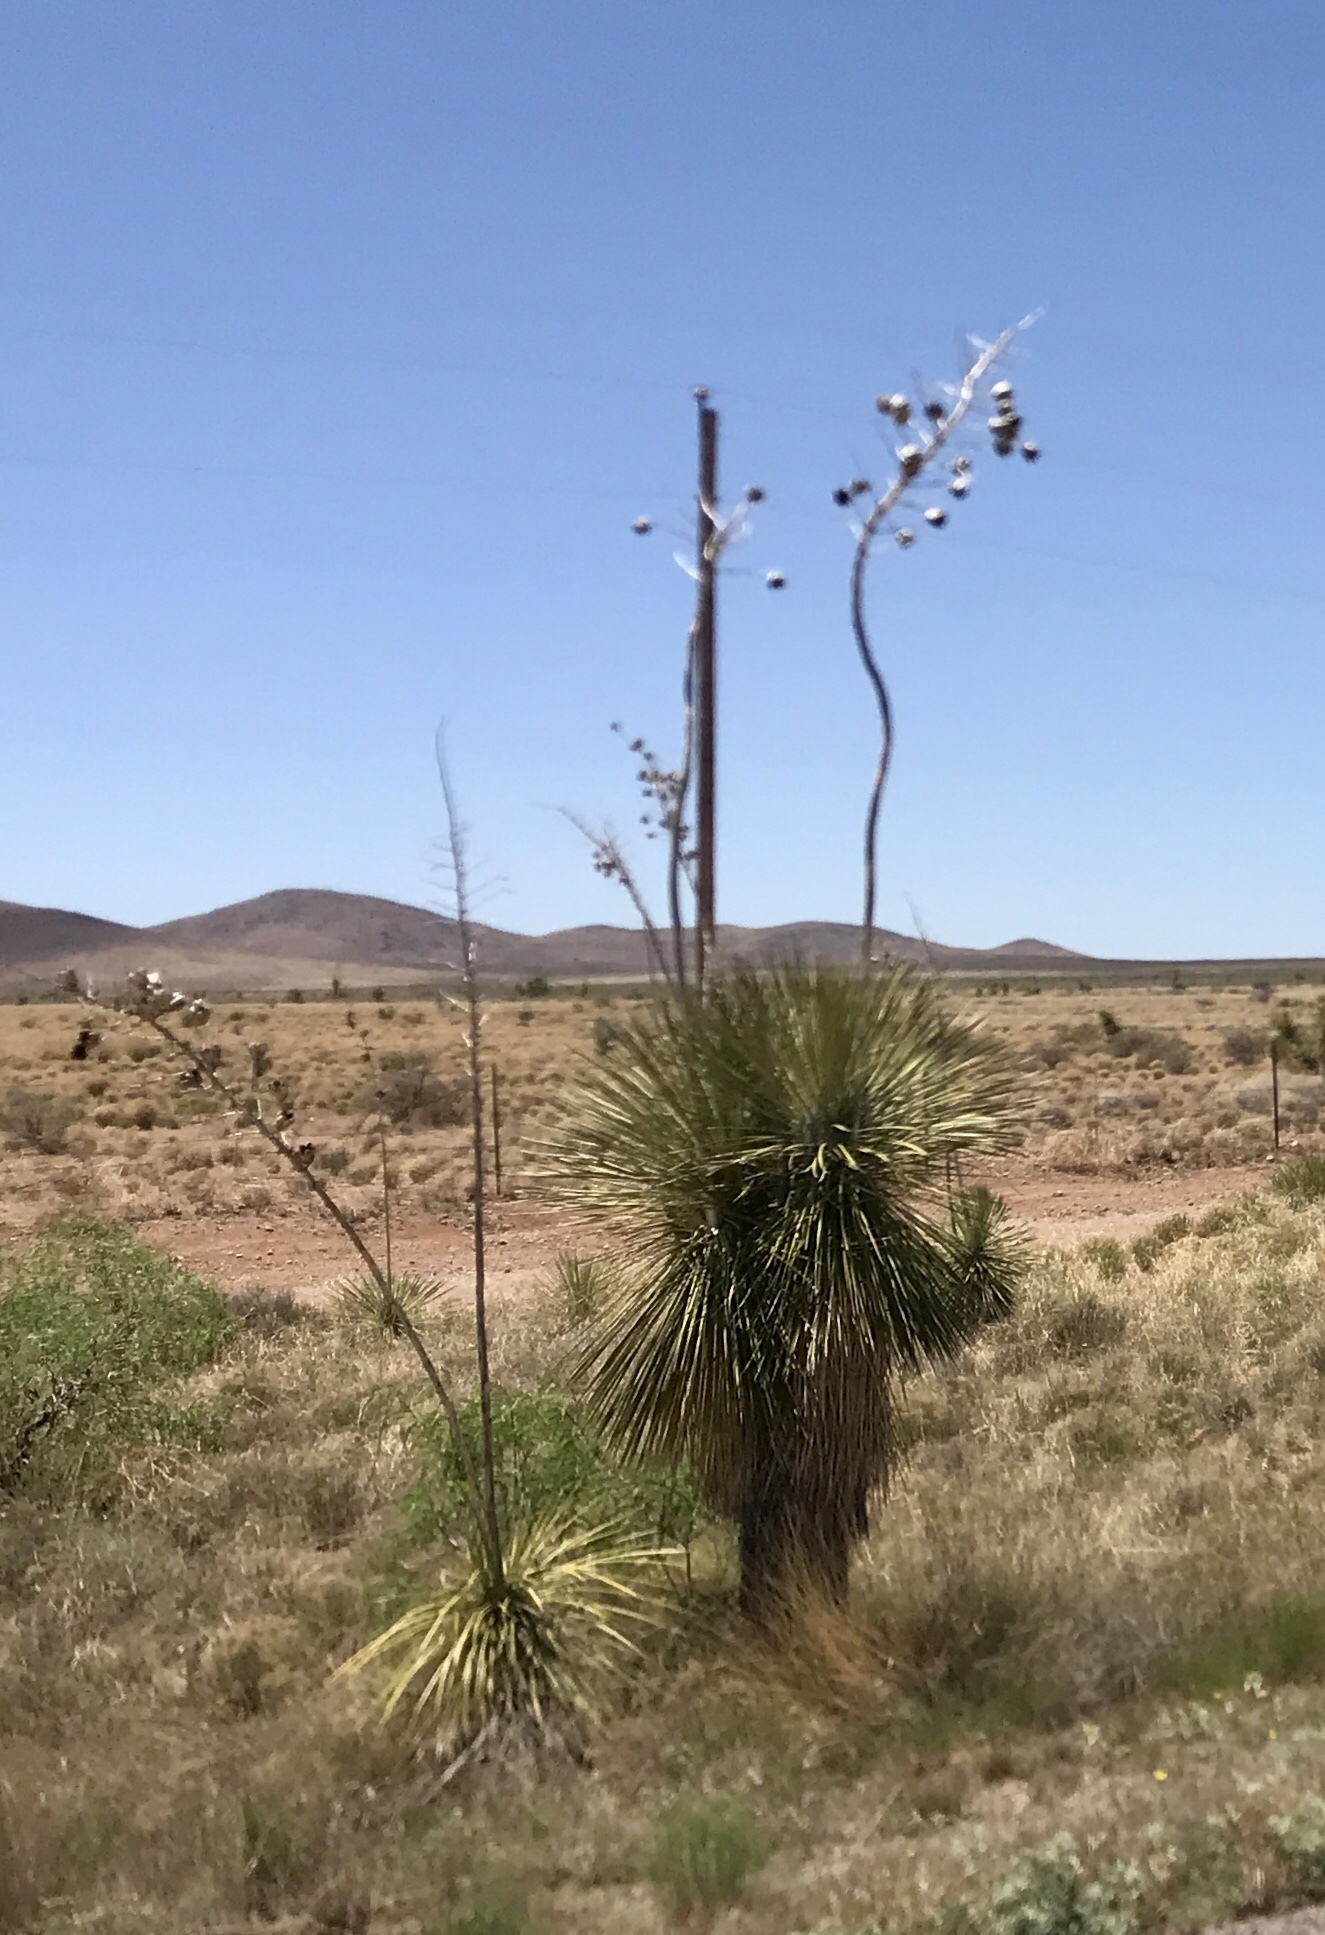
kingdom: Plantae
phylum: Tracheophyta
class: Liliopsida
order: Asparagales
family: Asparagaceae
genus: Yucca
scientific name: Yucca elata
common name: Palmella
